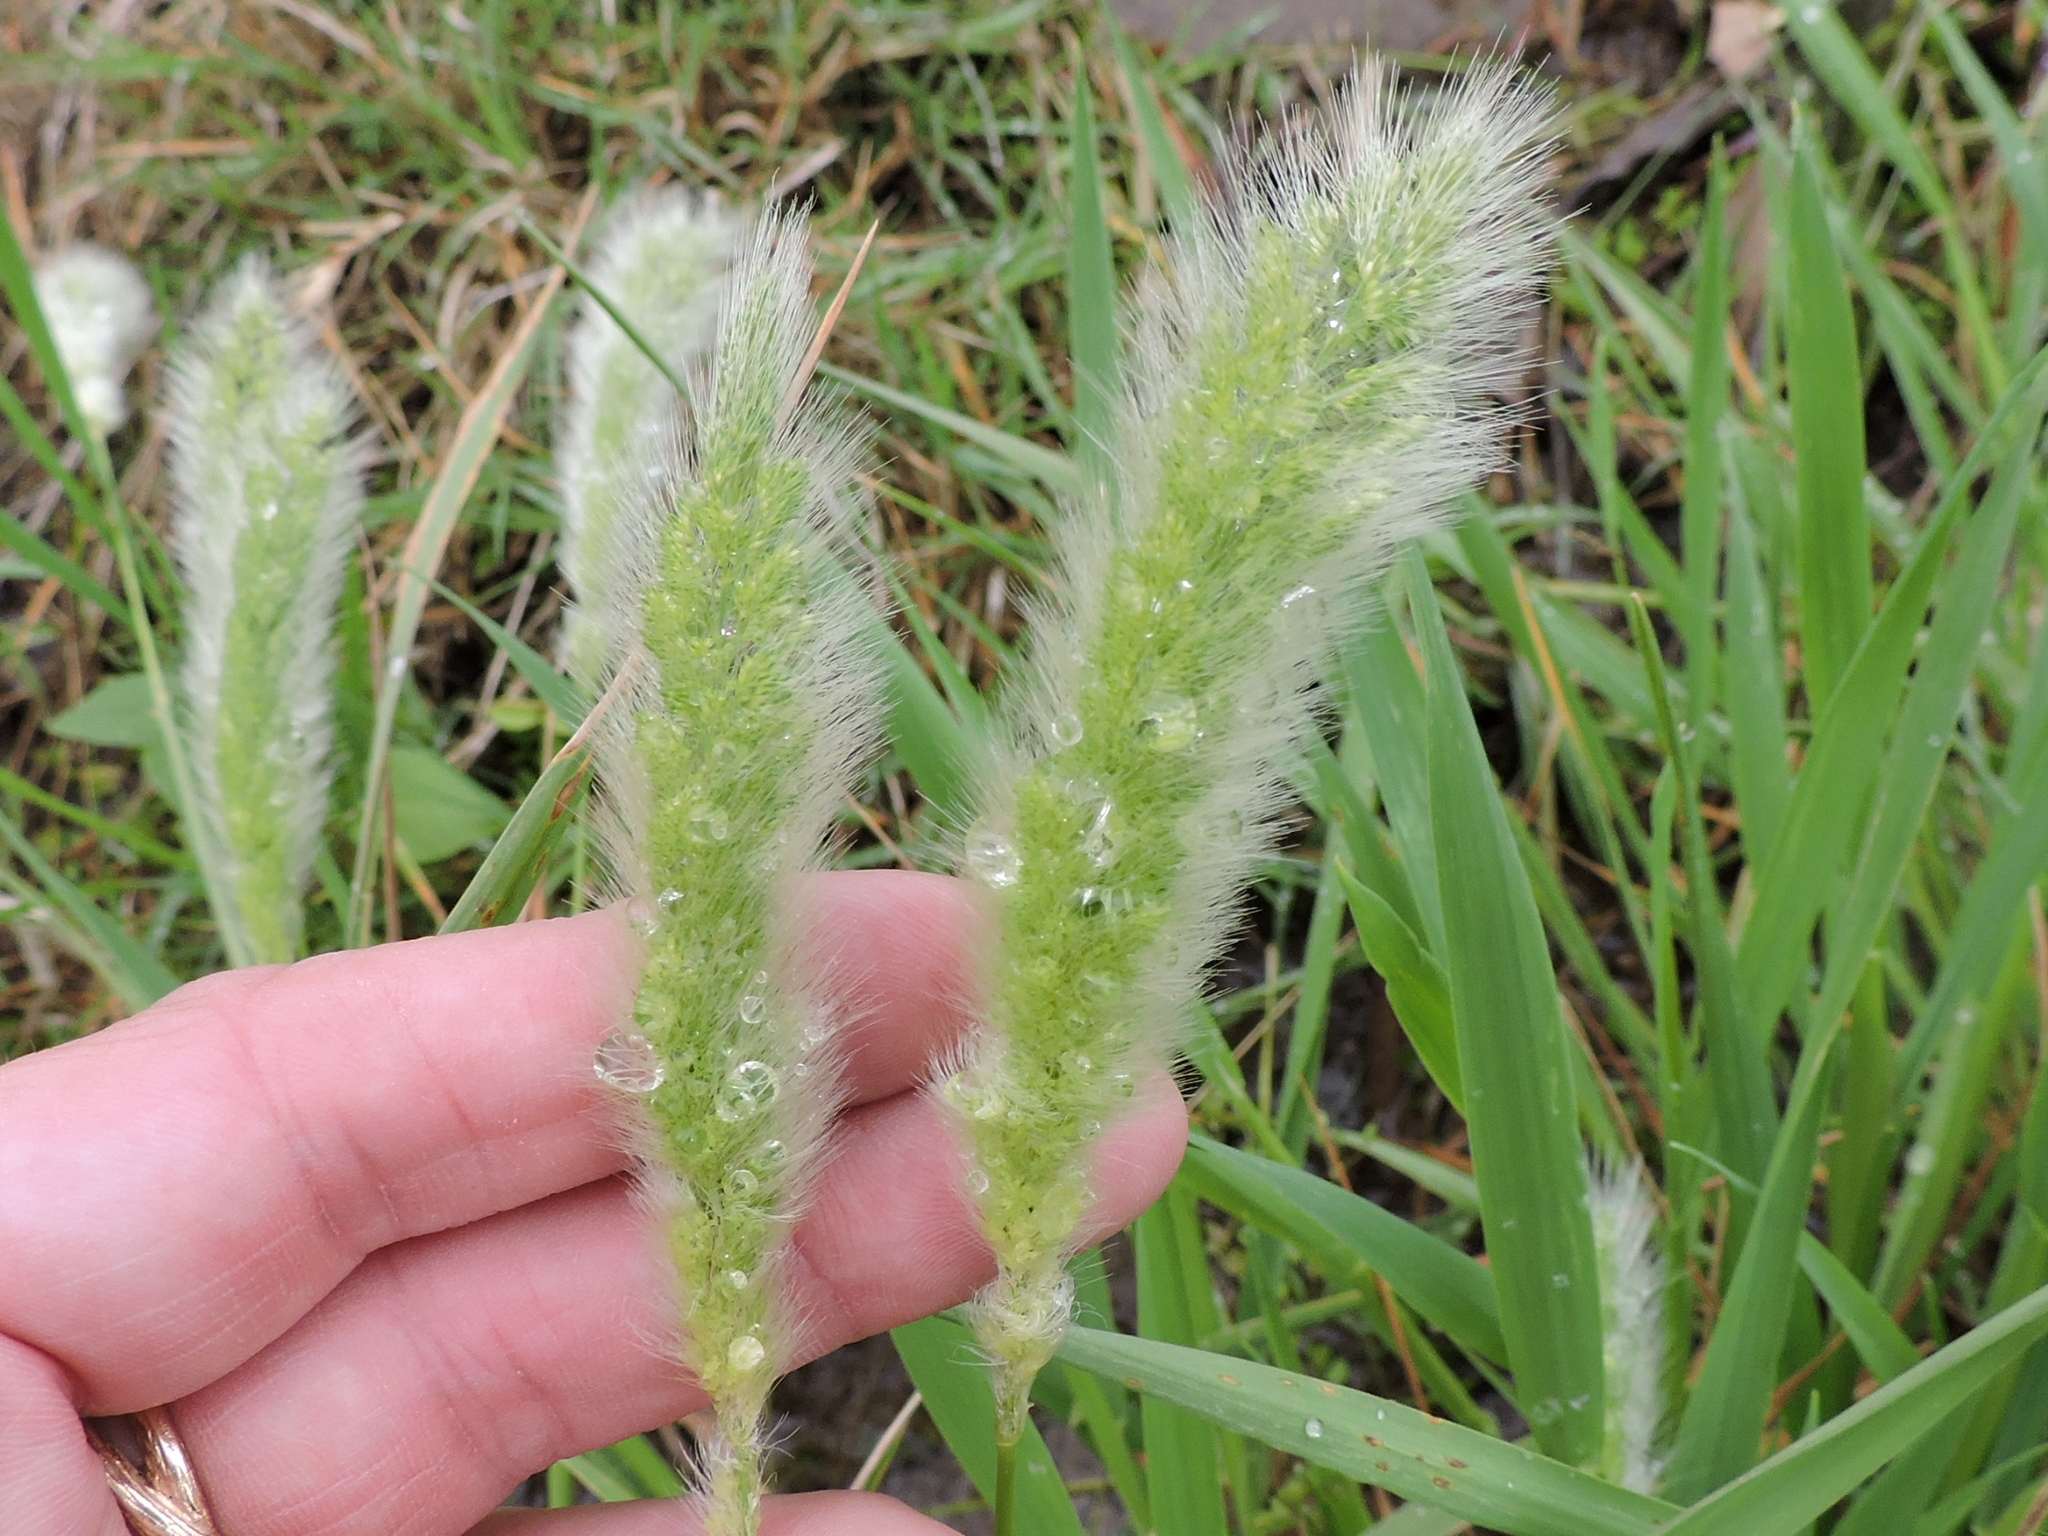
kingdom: Plantae
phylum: Tracheophyta
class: Liliopsida
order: Poales
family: Poaceae
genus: Polypogon
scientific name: Polypogon monspeliensis
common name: Annual rabbitsfoot grass
